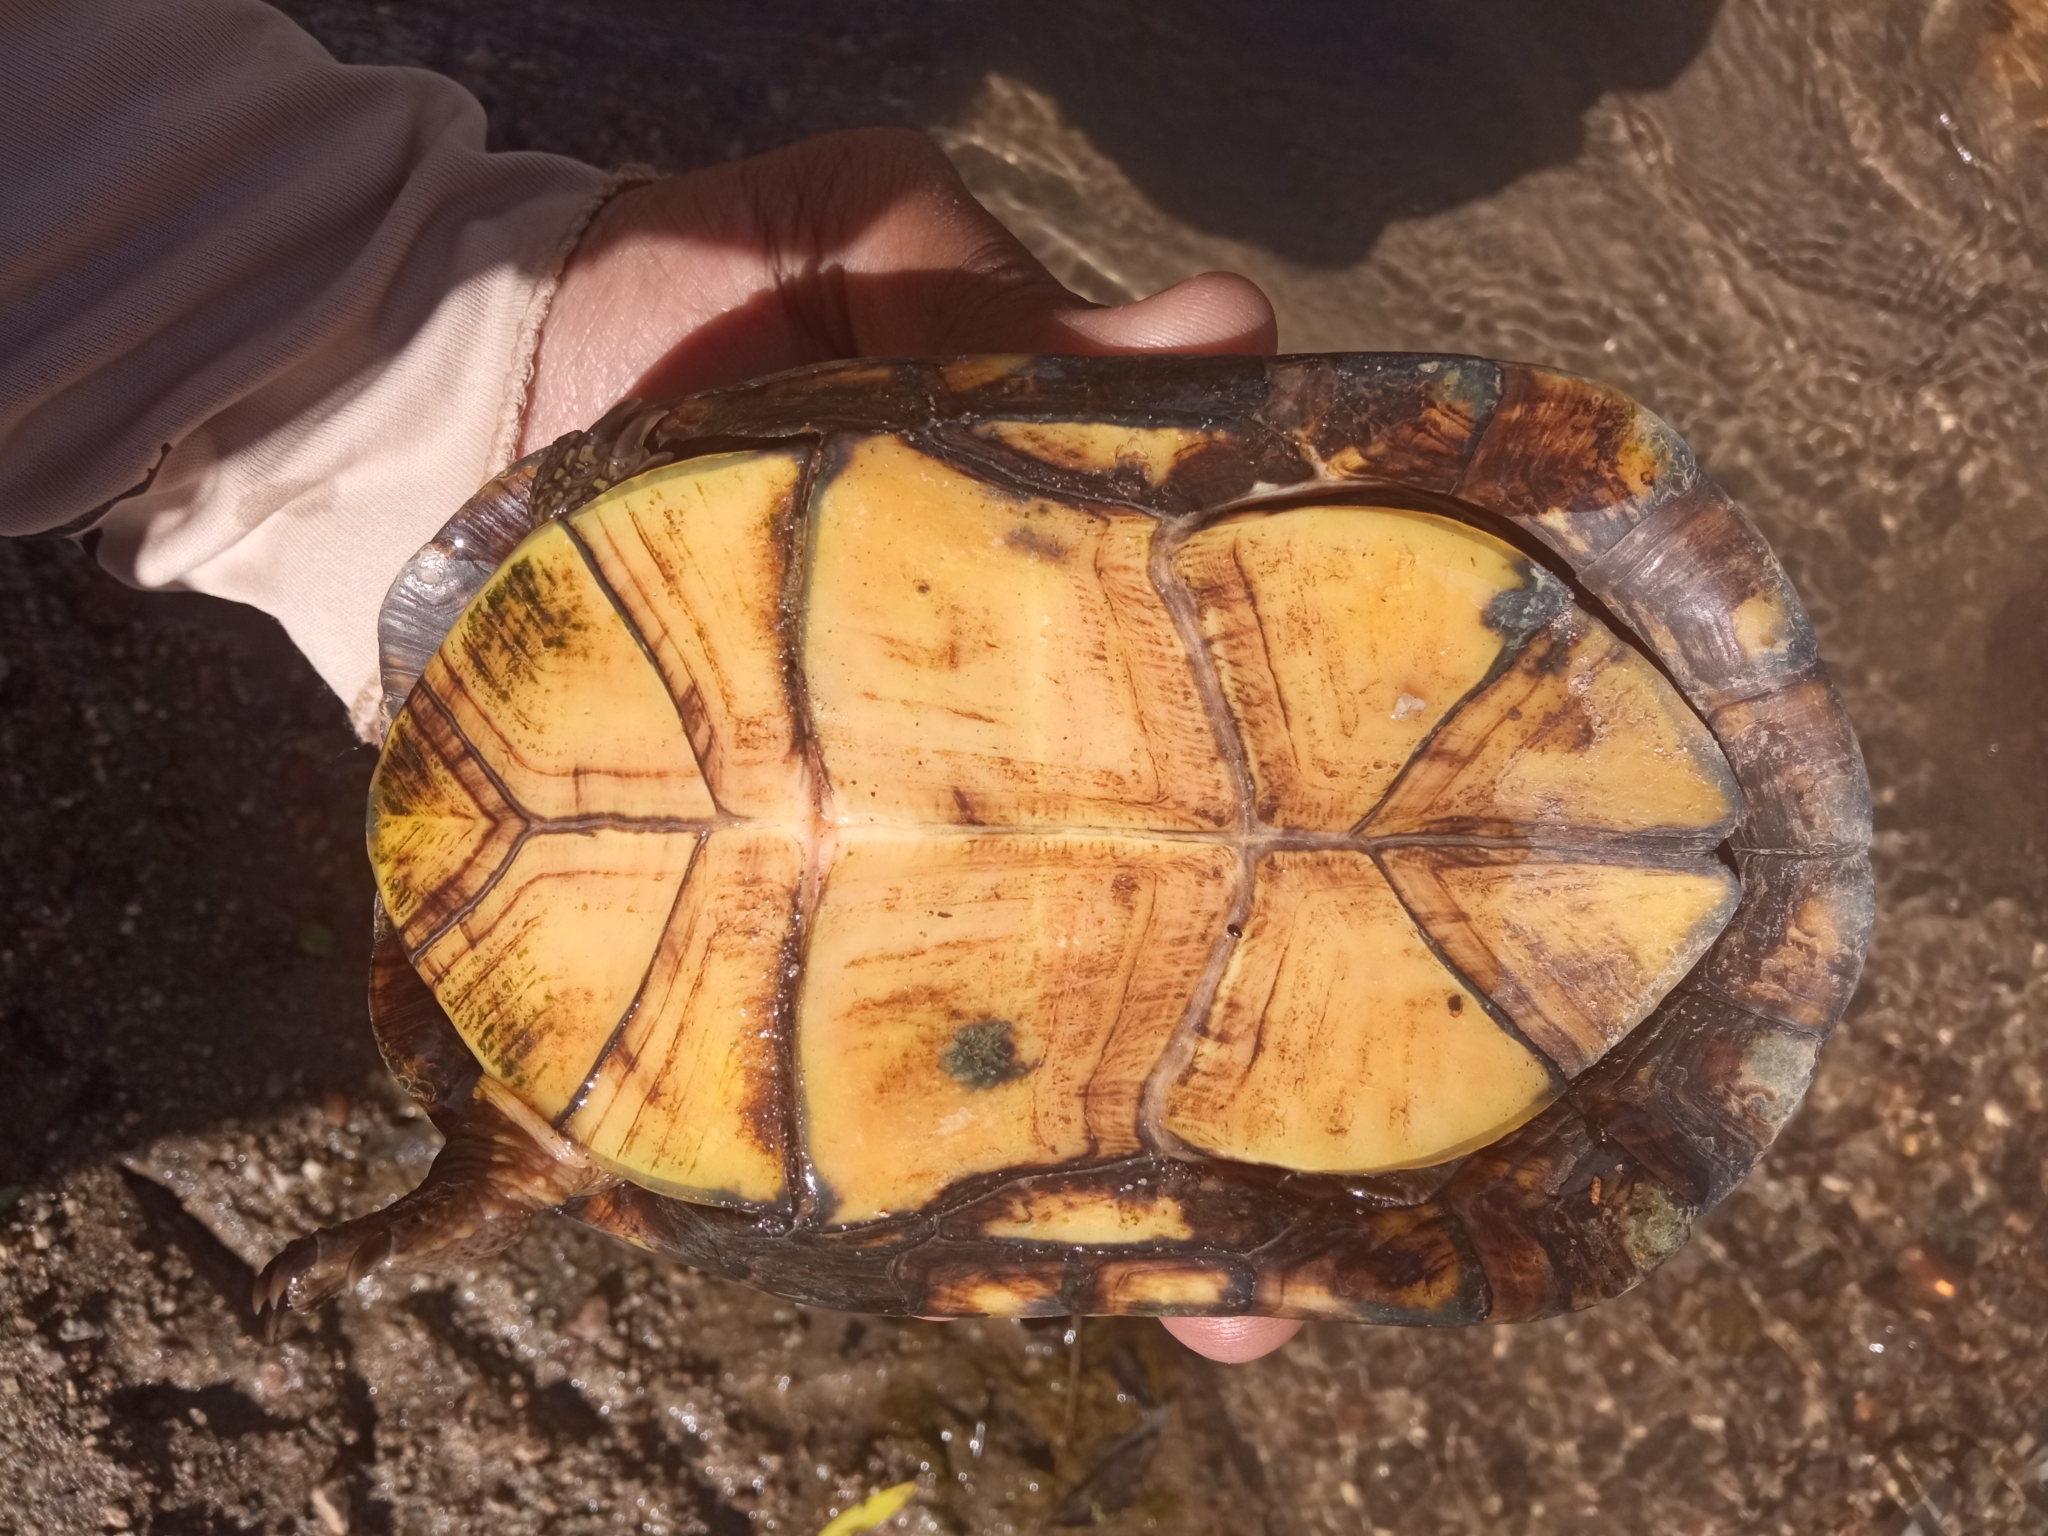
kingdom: Animalia
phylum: Chordata
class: Testudines
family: Kinosternidae
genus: Kinosternon
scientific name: Kinosternon integrum
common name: Mexican mud turtle
